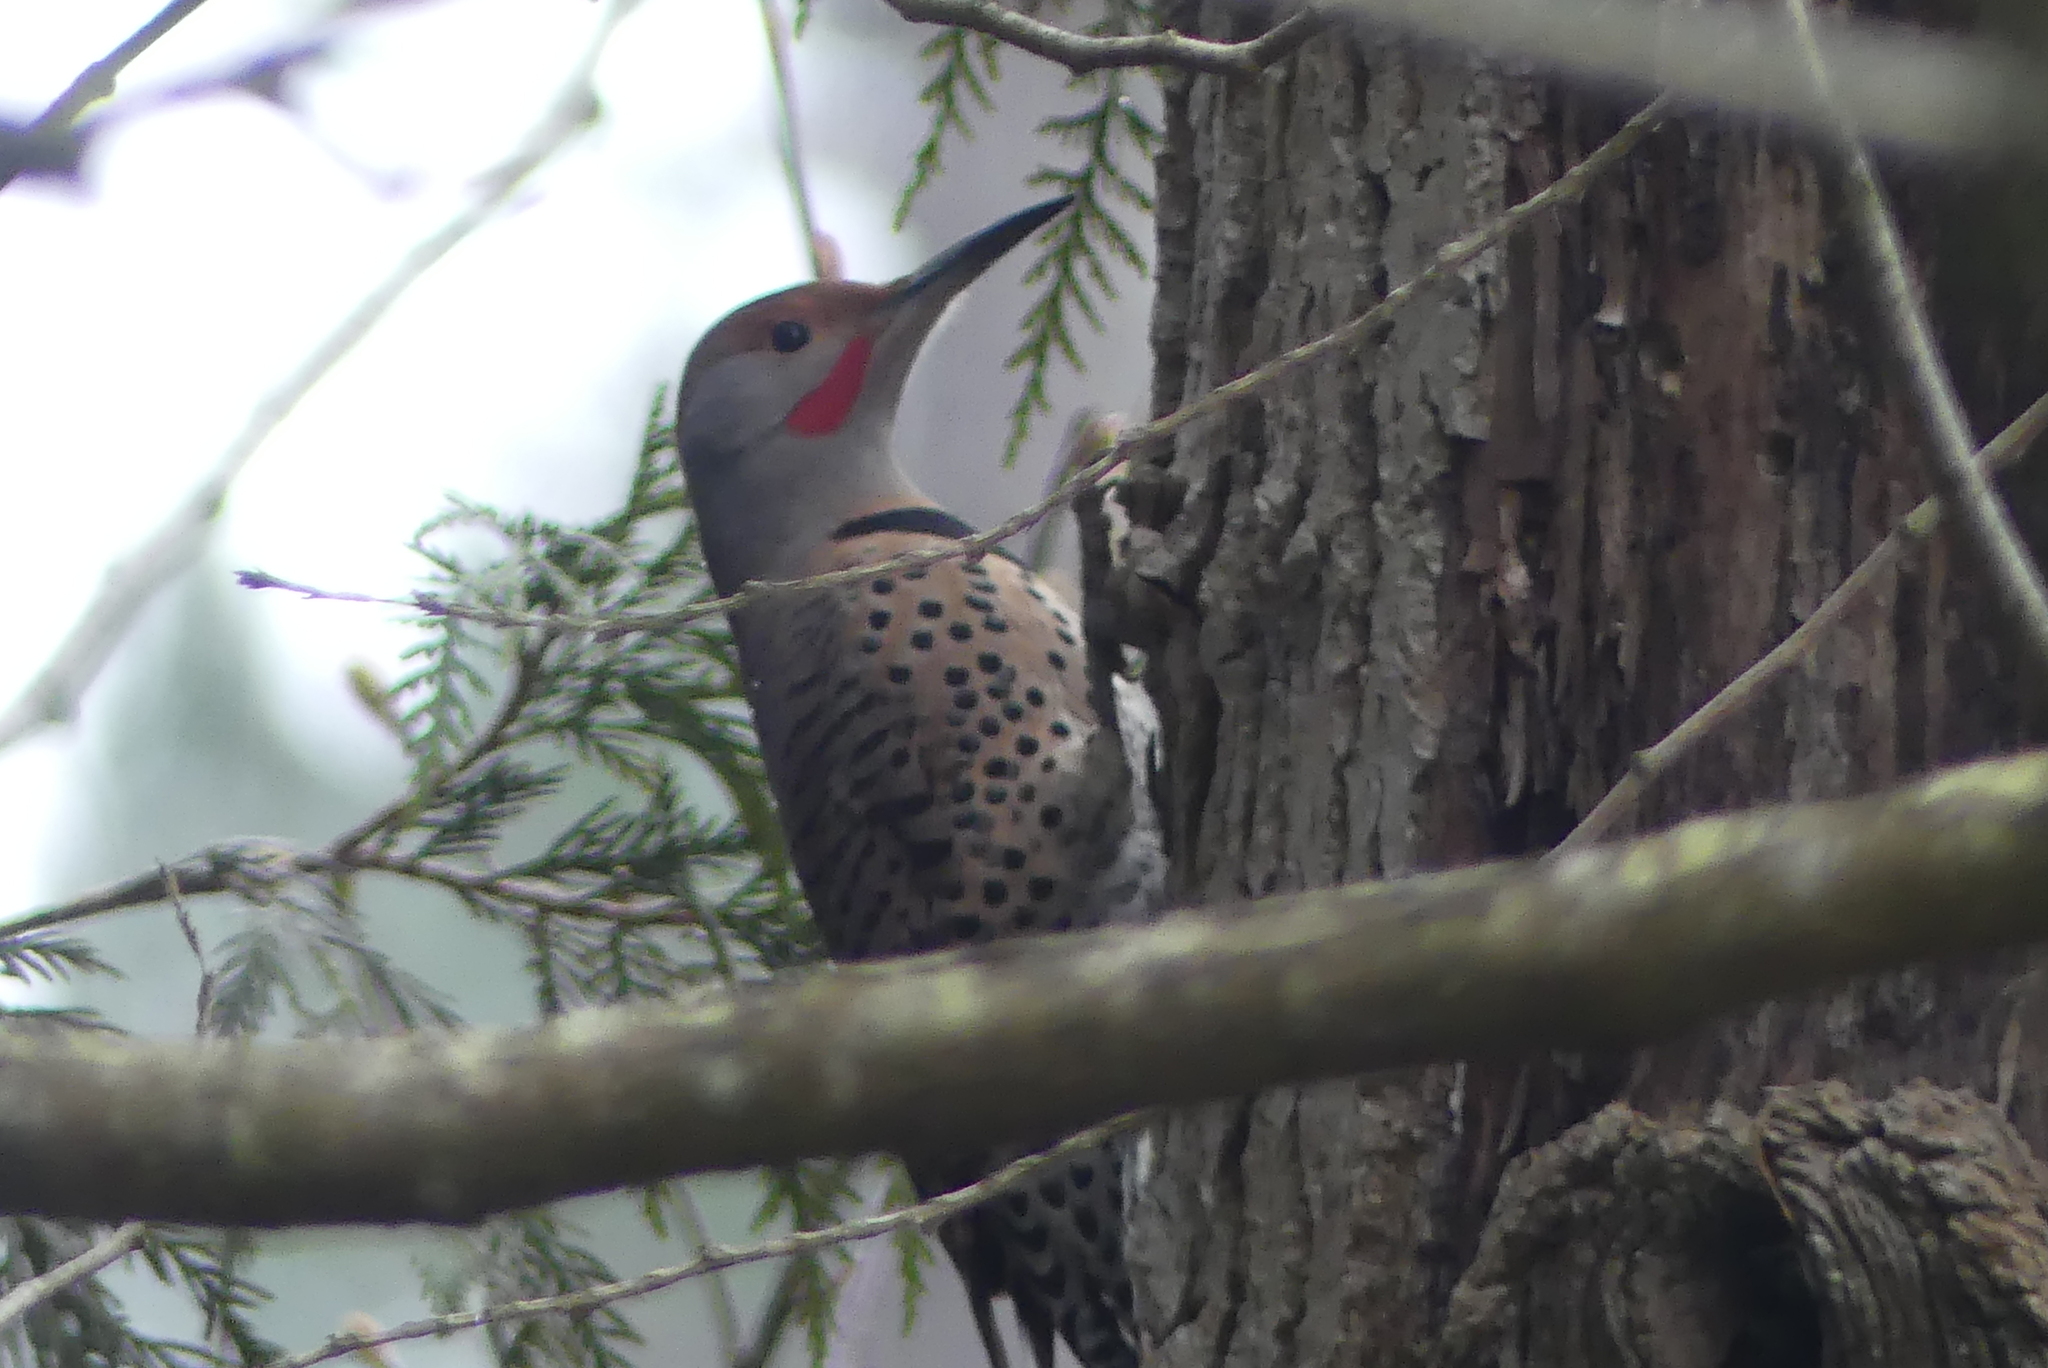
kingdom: Animalia
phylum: Chordata
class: Aves
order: Piciformes
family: Picidae
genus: Colaptes
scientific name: Colaptes auratus
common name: Northern flicker
